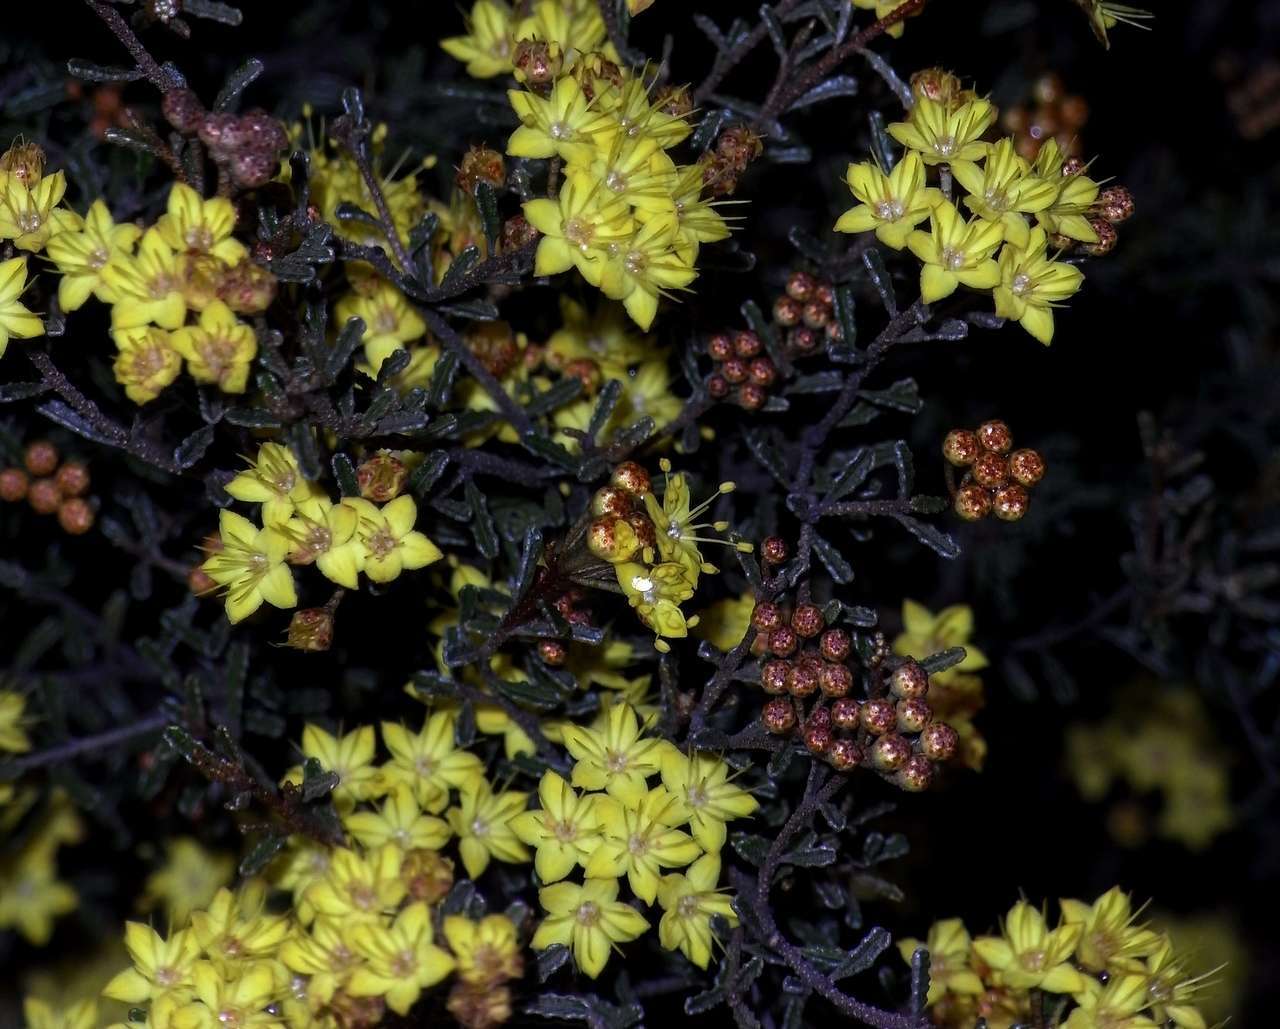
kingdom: Plantae
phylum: Tracheophyta
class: Magnoliopsida
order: Sapindales
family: Rutaceae
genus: Phebalium
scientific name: Phebalium bullatum
